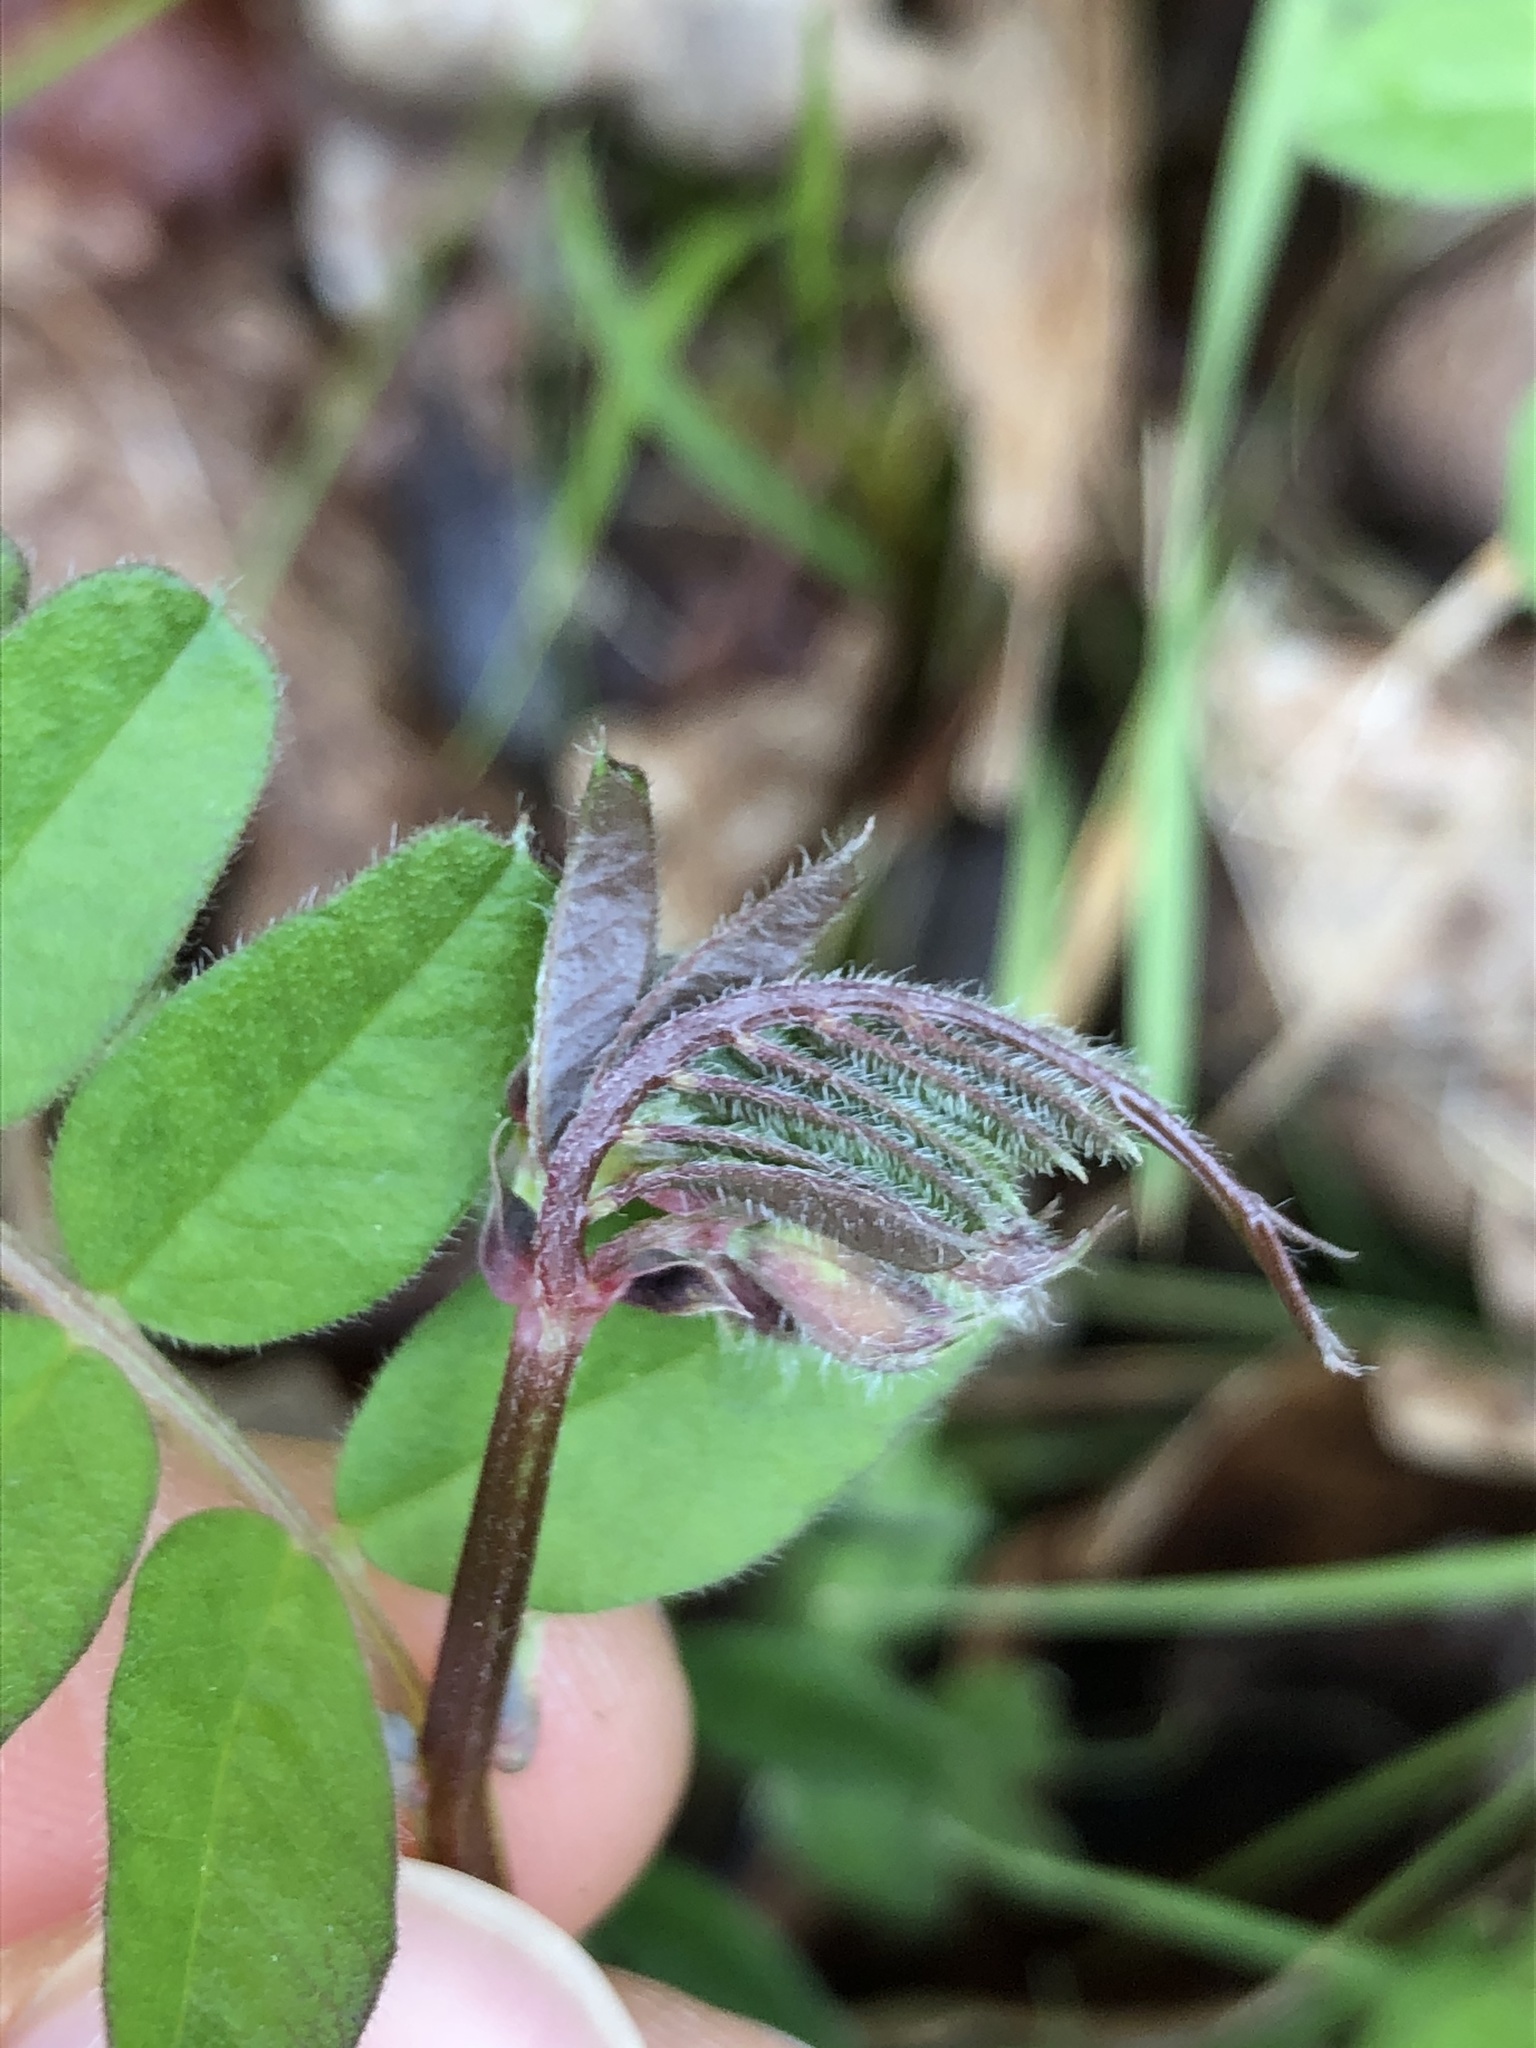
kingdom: Plantae
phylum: Tracheophyta
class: Magnoliopsida
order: Fabales
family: Fabaceae
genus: Vicia
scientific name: Vicia sepium
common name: Bush vetch
